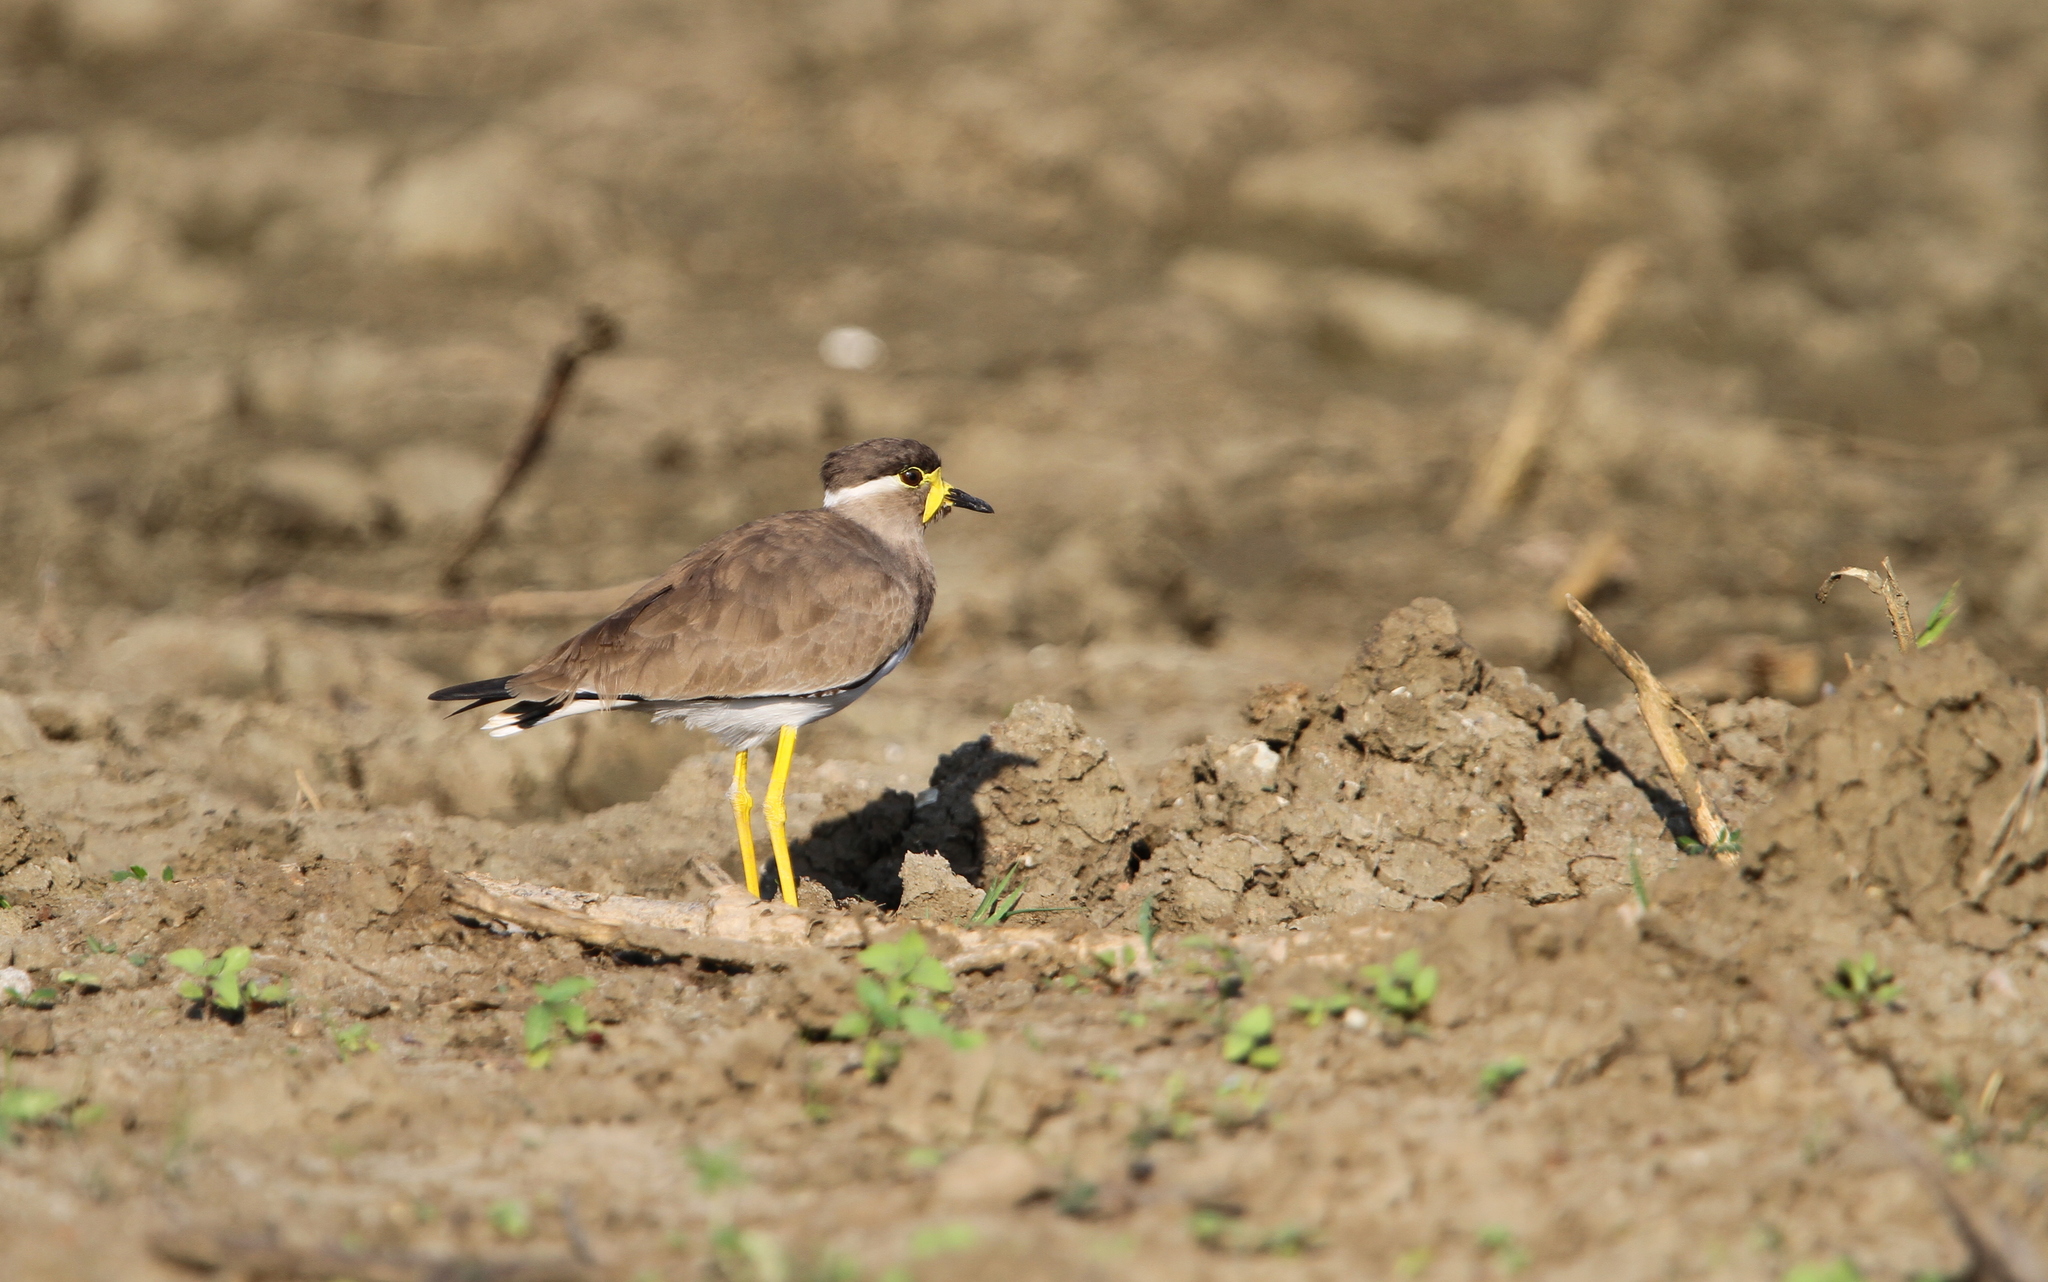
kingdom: Animalia
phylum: Chordata
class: Aves
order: Charadriiformes
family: Charadriidae
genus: Vanellus
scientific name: Vanellus malabaricus
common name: Yellow-wattled lapwing
